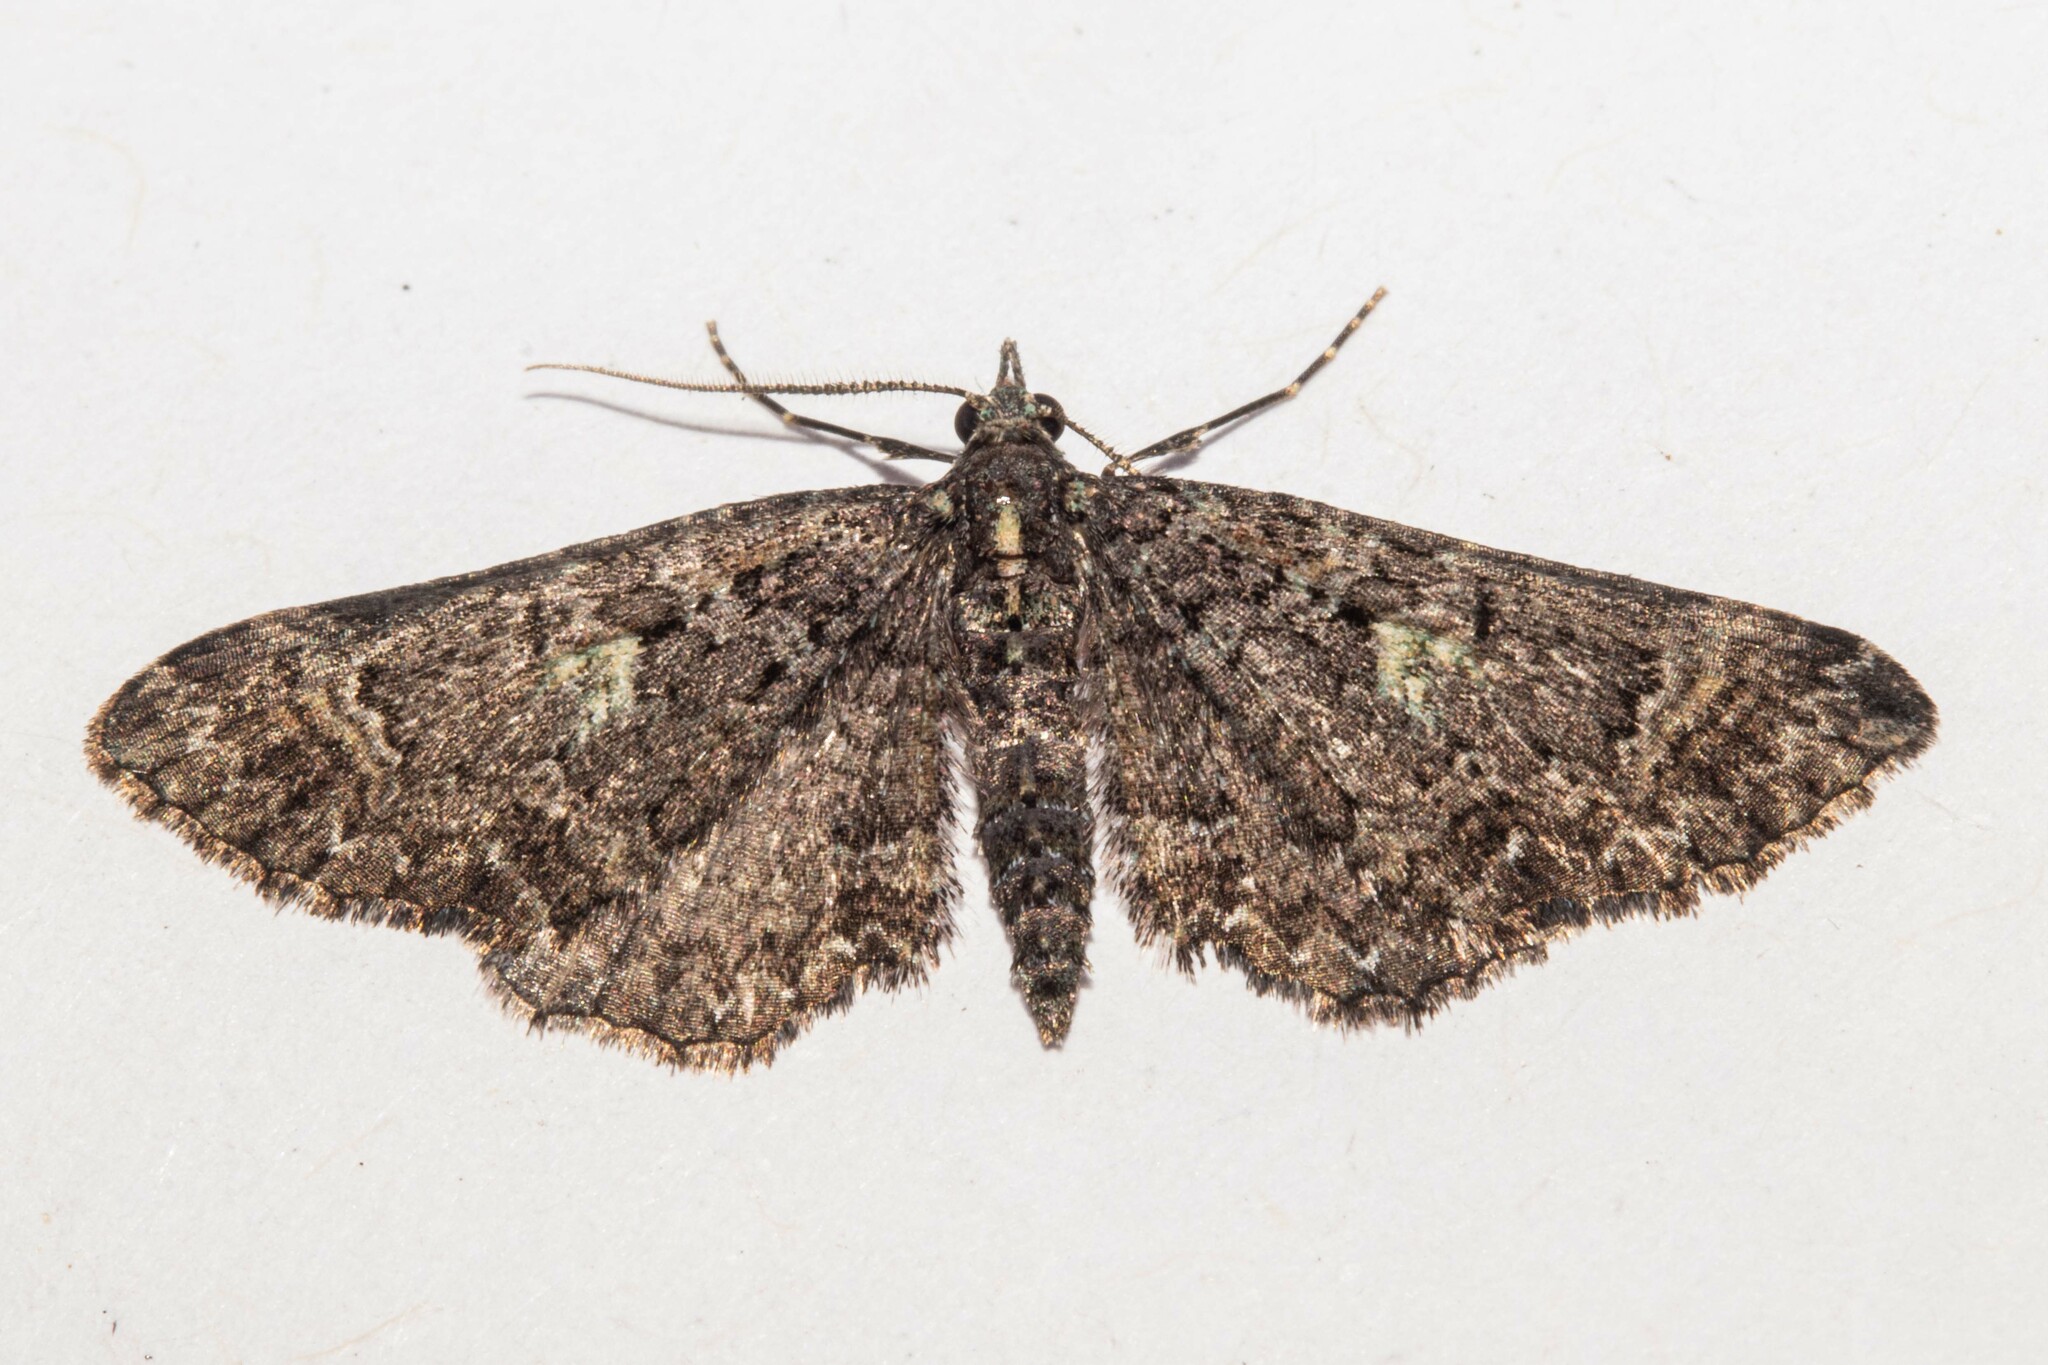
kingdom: Animalia
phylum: Arthropoda
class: Insecta
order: Lepidoptera
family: Geometridae
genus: Pasiphila
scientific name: Pasiphila rubella
